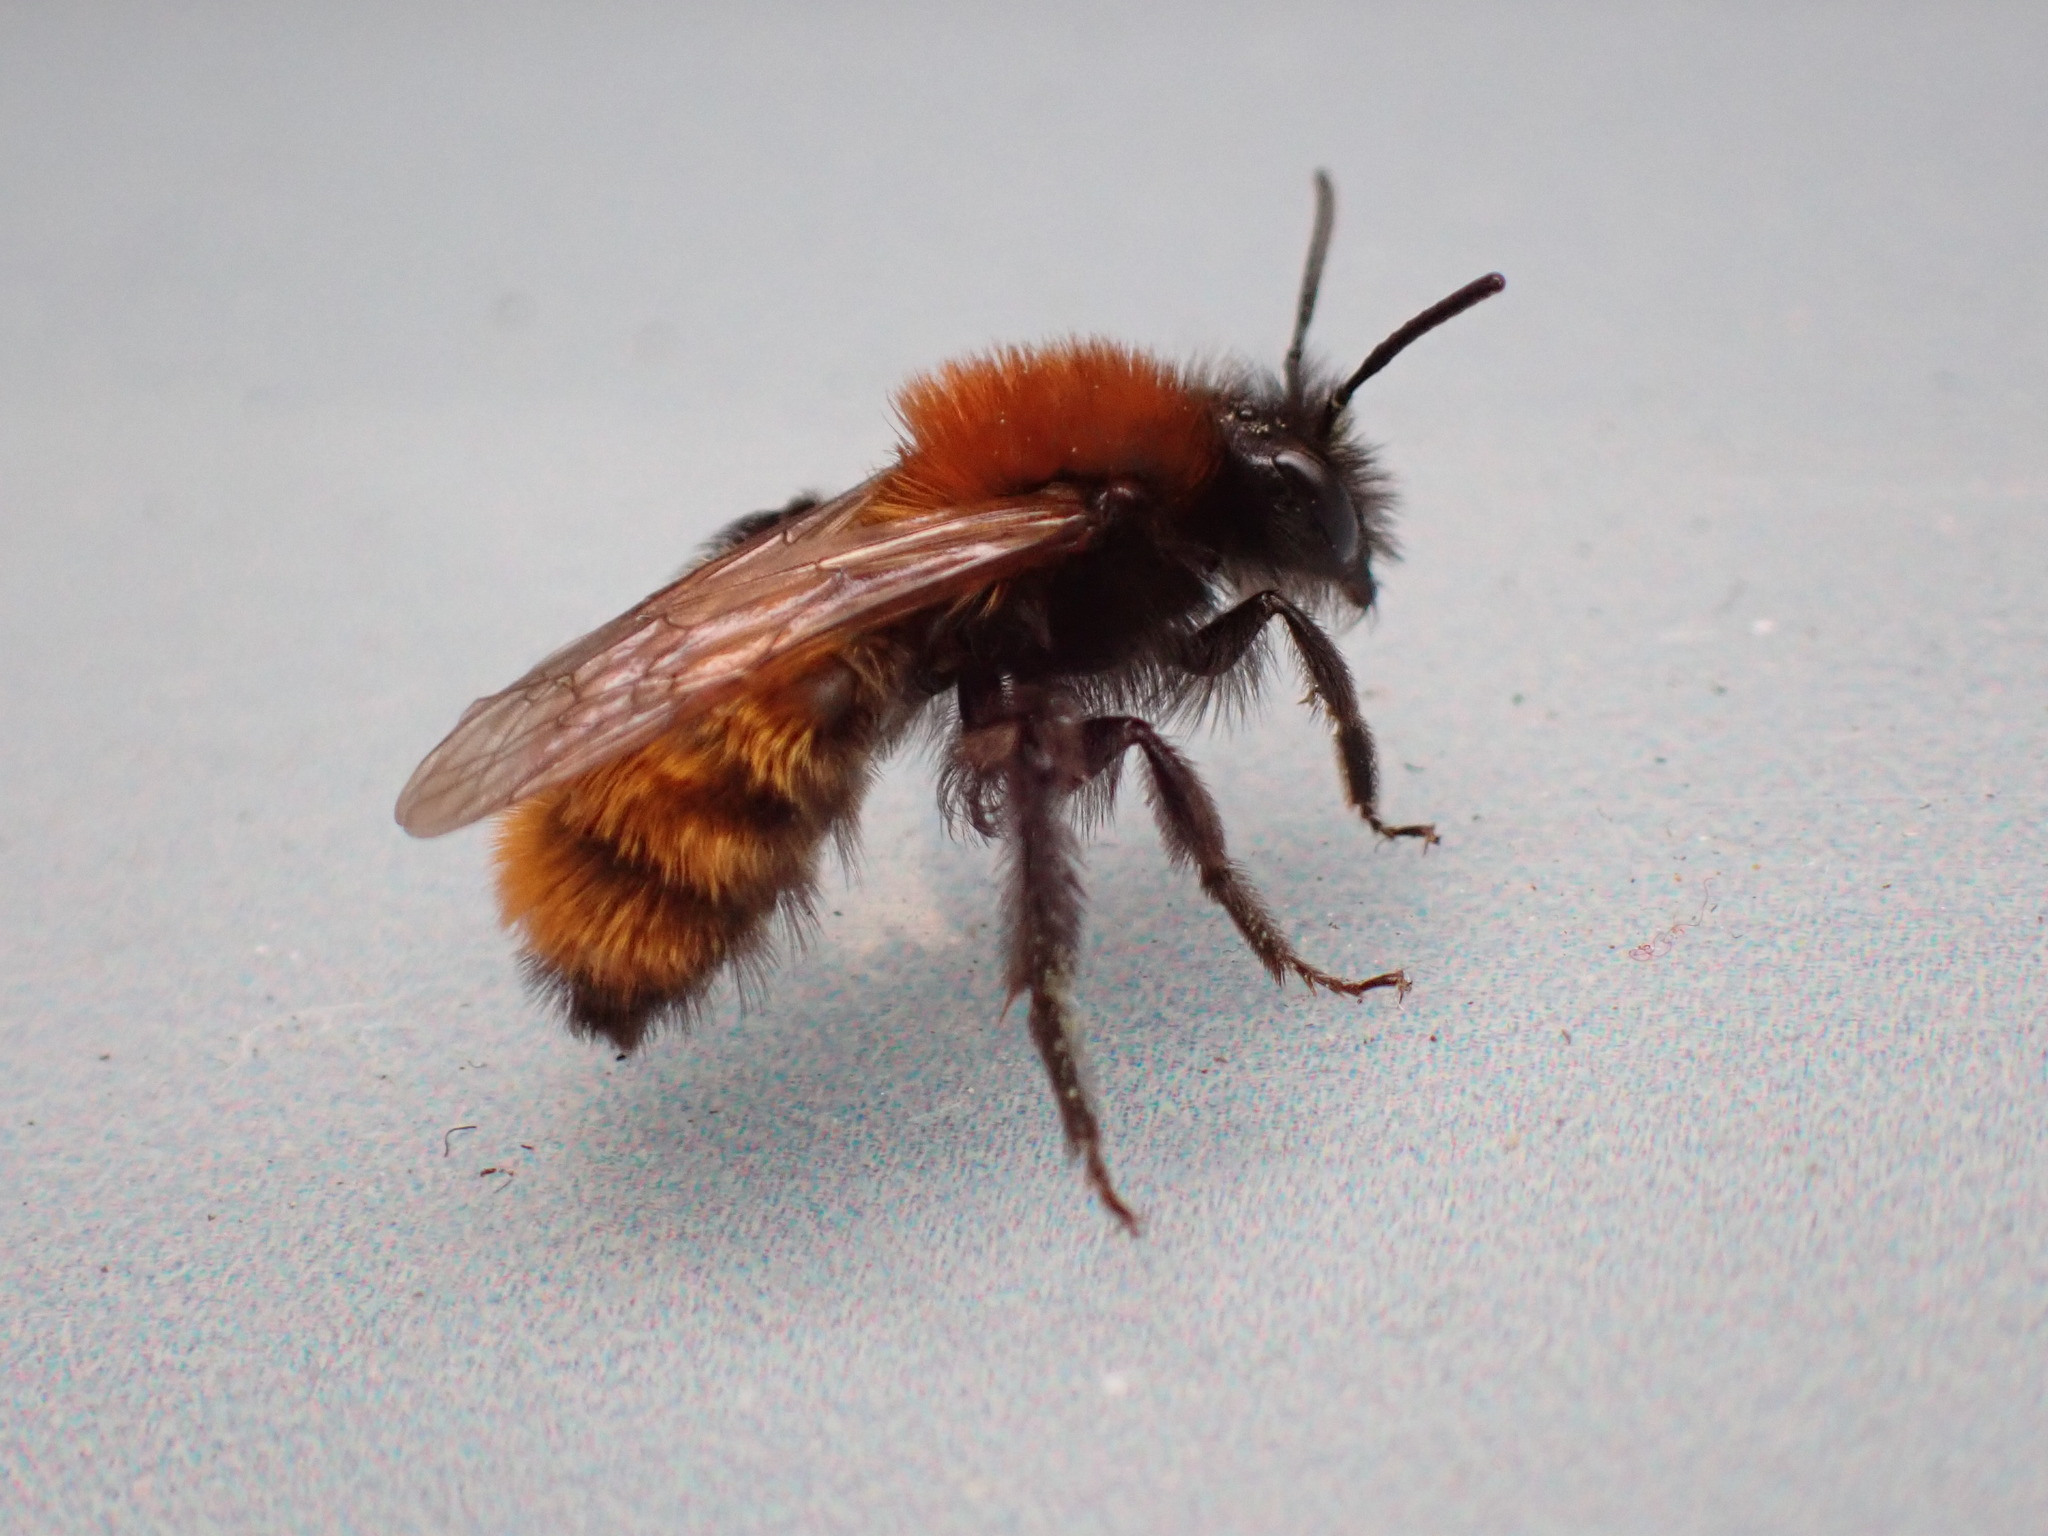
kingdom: Animalia
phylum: Arthropoda
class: Insecta
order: Hymenoptera
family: Andrenidae
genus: Andrena
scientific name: Andrena fulva
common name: Tawny mining bee
